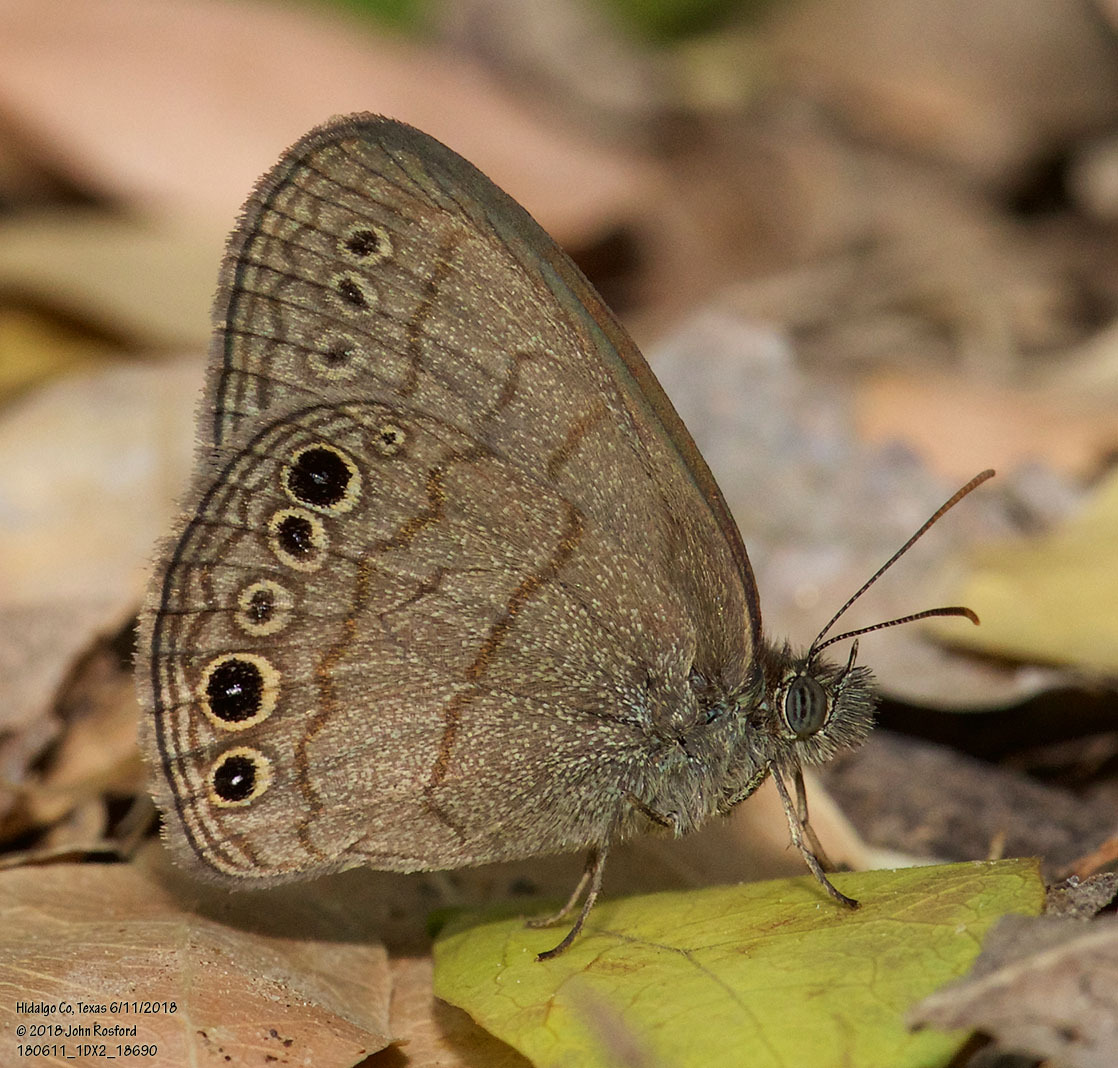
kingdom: Animalia
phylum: Arthropoda
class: Insecta
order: Lepidoptera
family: Nymphalidae
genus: Hermeuptychia
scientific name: Hermeuptychia hermybius
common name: South texas satyr
